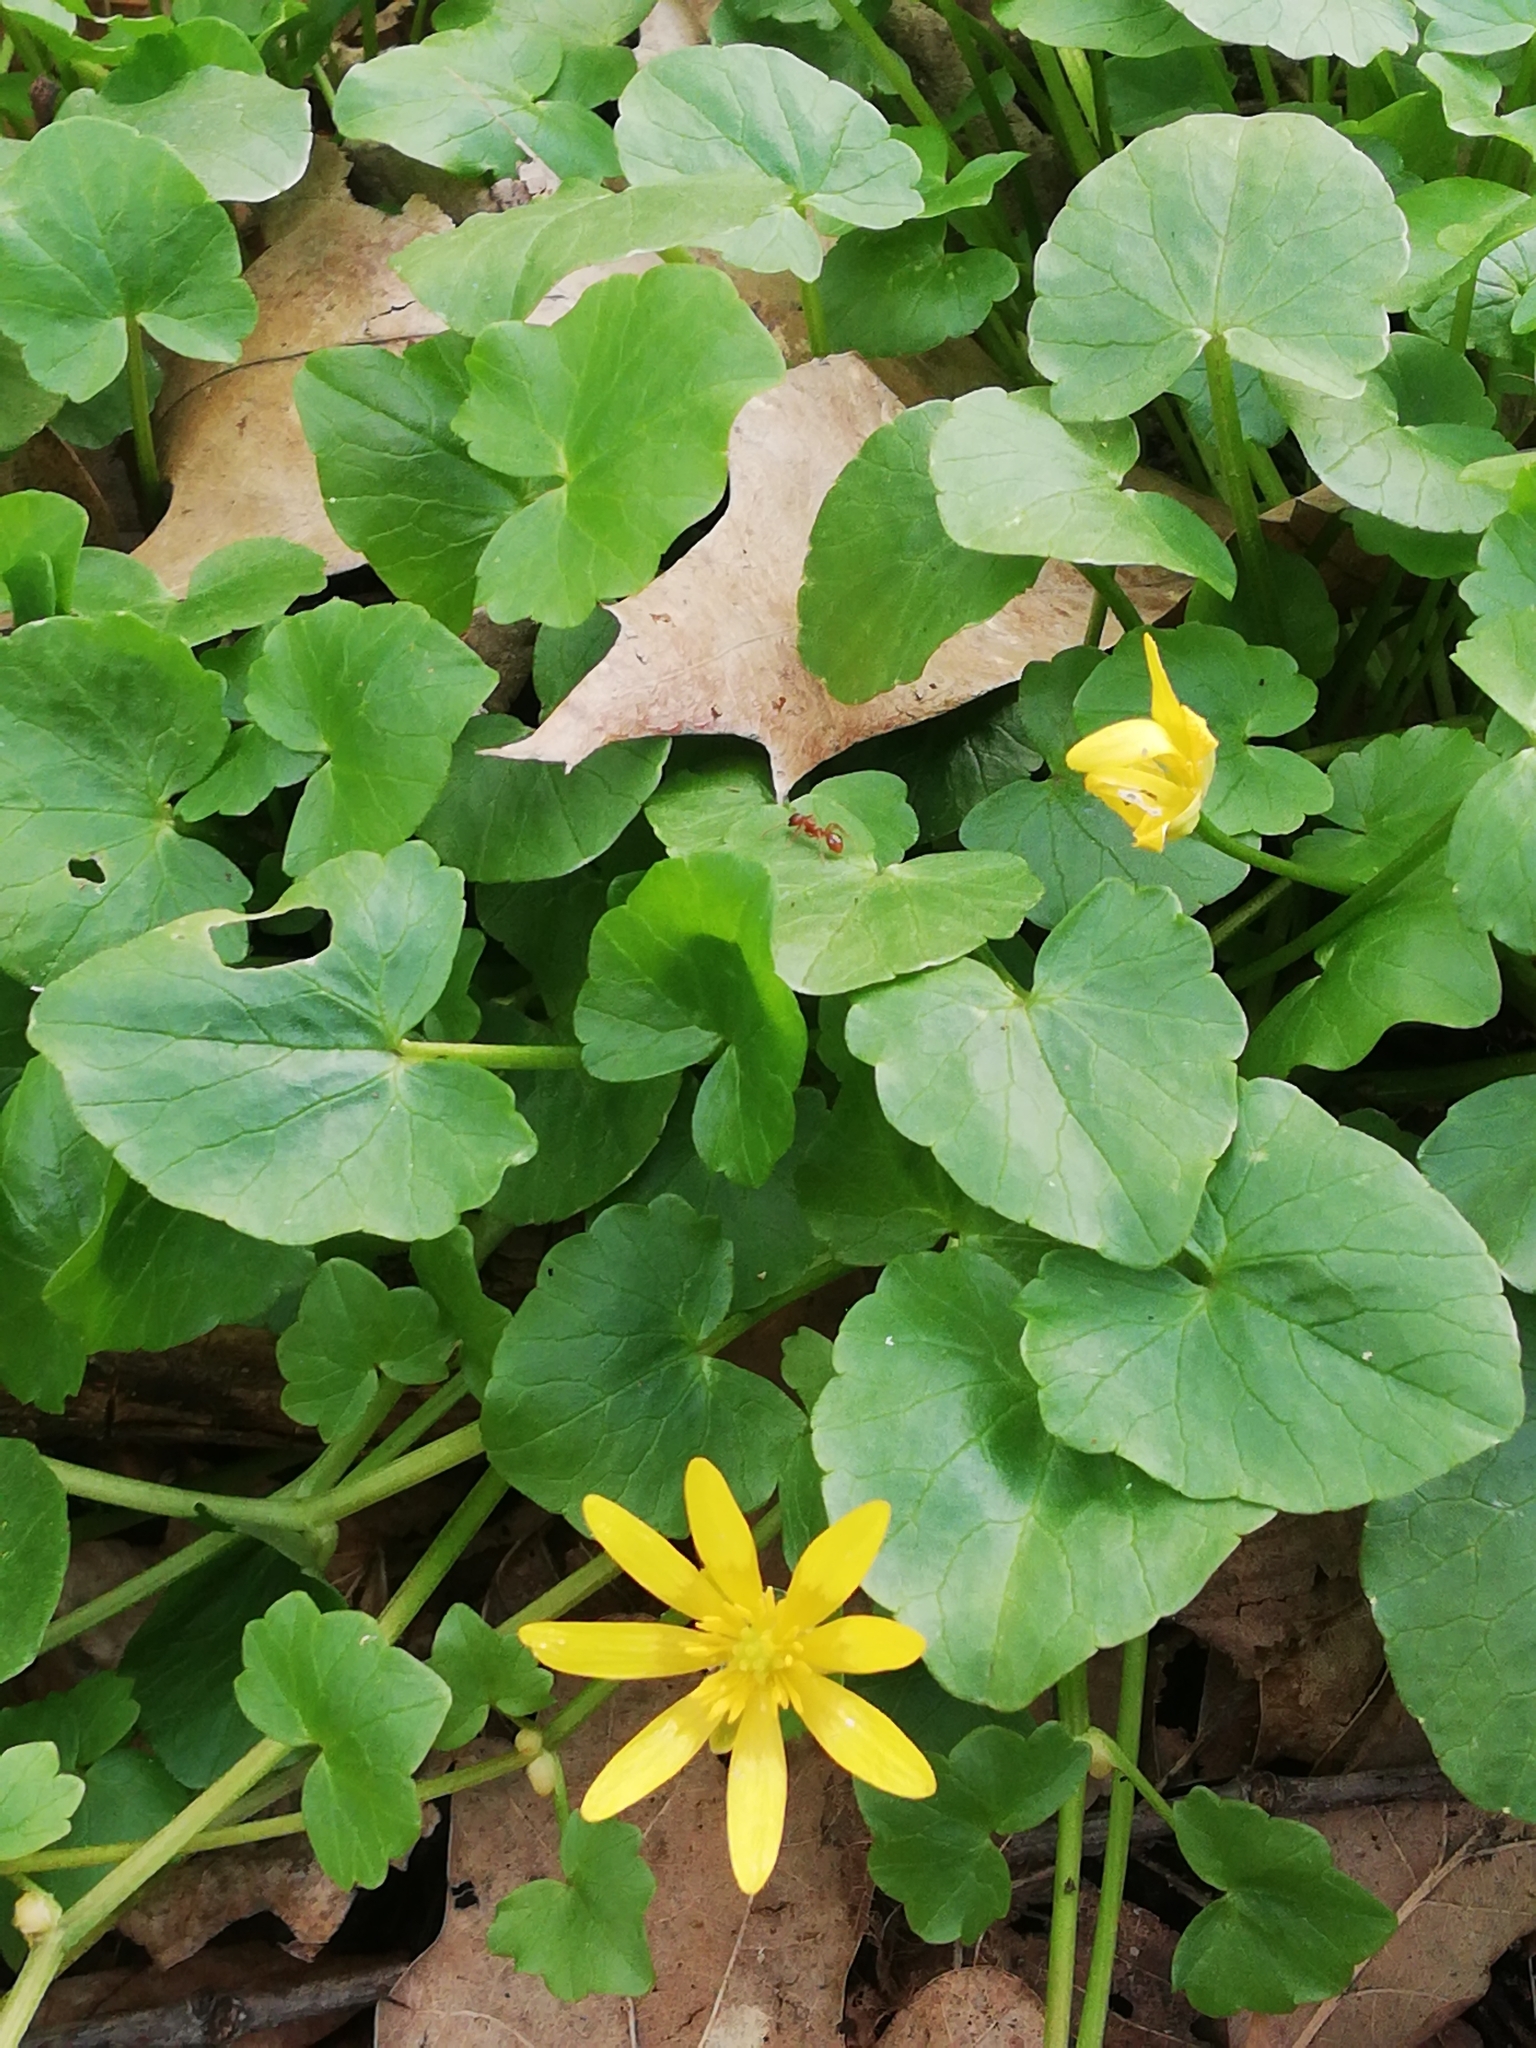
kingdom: Plantae
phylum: Tracheophyta
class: Magnoliopsida
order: Ranunculales
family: Ranunculaceae
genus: Ficaria
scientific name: Ficaria verna
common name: Lesser celandine
